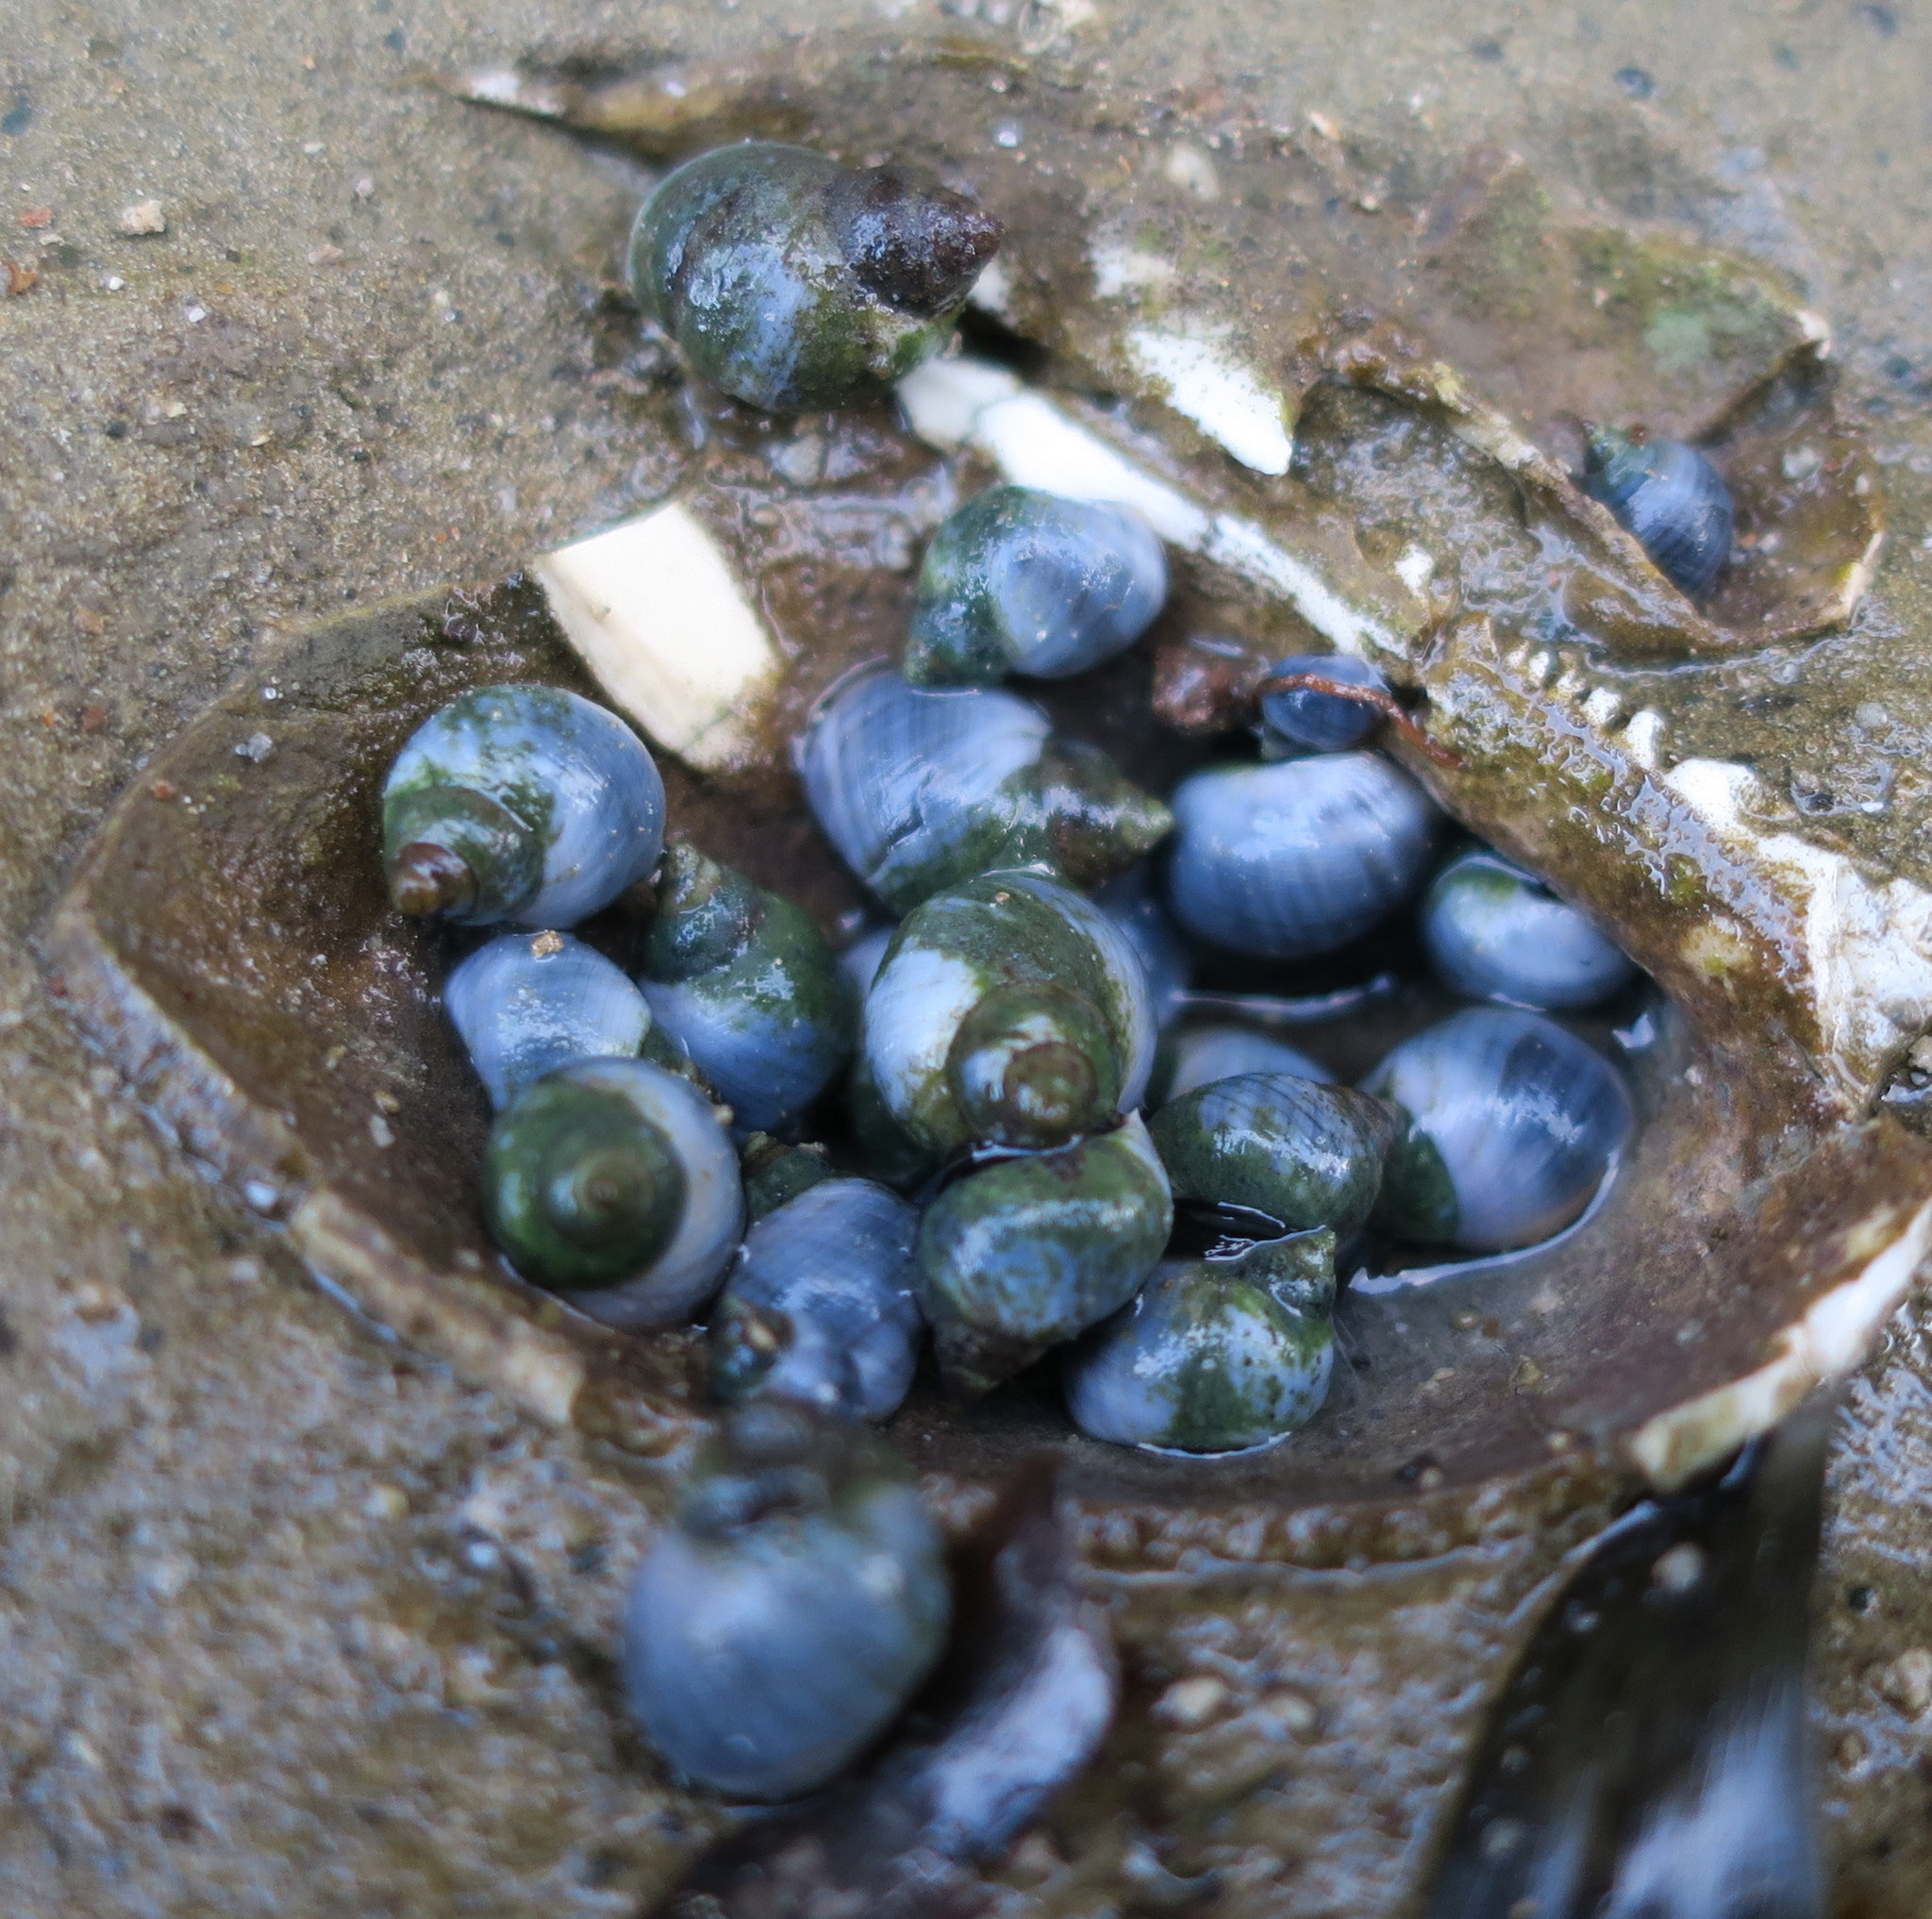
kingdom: Animalia
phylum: Mollusca
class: Gastropoda
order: Littorinimorpha
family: Littorinidae
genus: Austrolittorina
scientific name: Austrolittorina unifasciata
